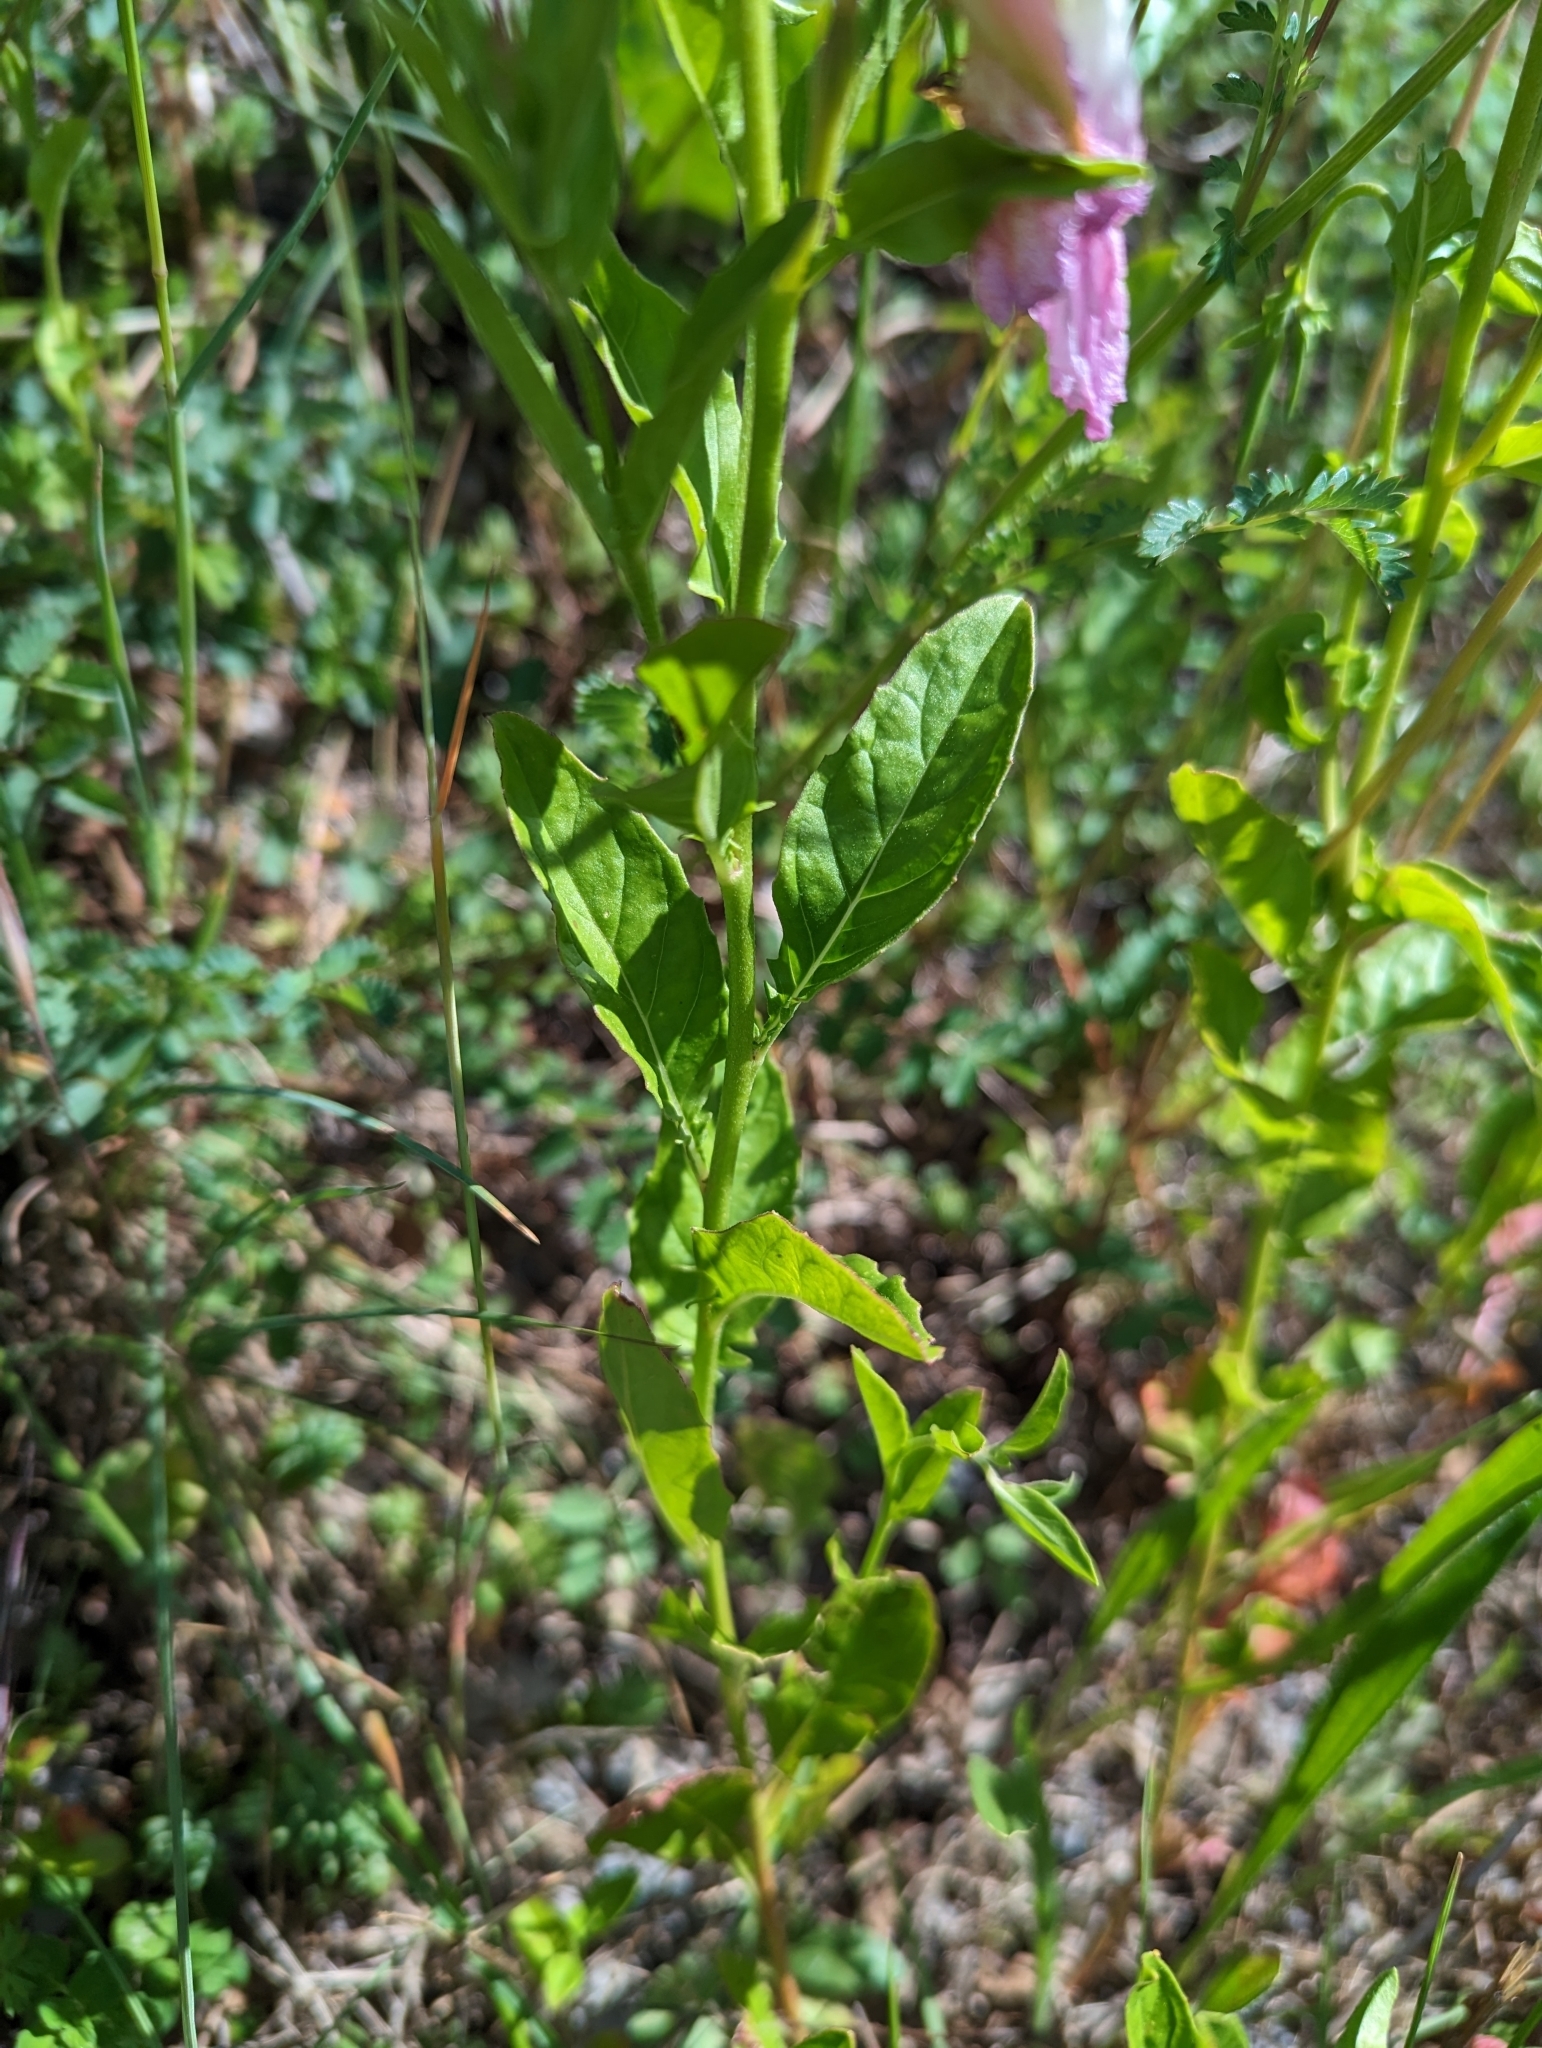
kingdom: Plantae
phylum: Tracheophyta
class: Magnoliopsida
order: Myrtales
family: Onagraceae
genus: Oenothera
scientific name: Oenothera speciosa
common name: White evening-primrose
